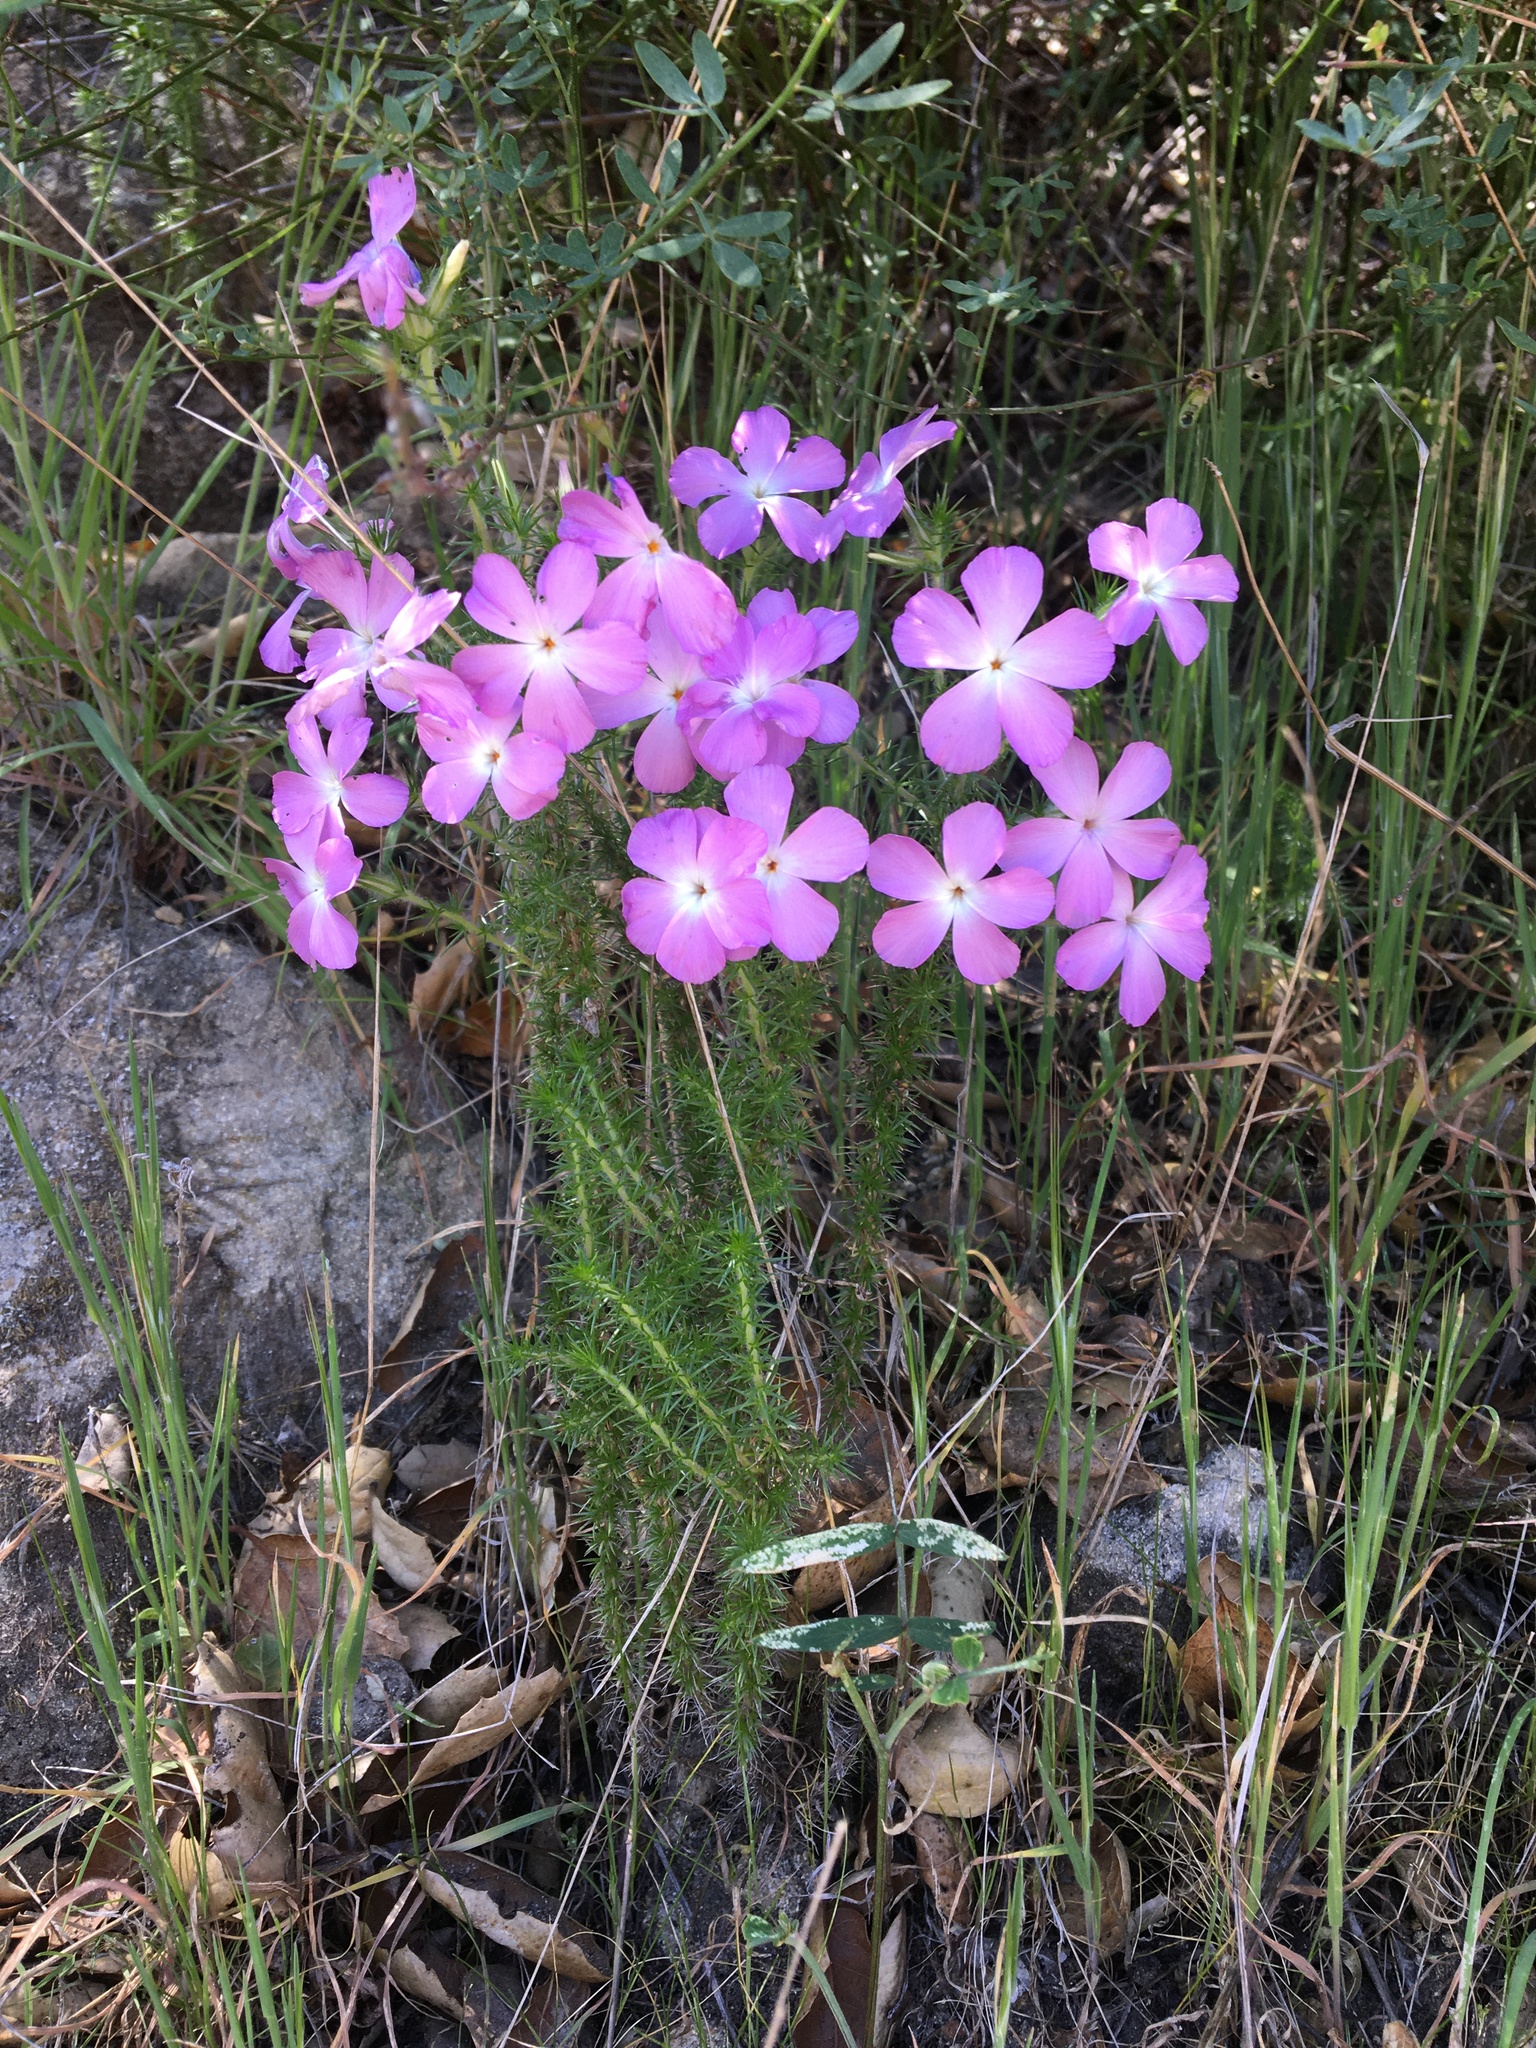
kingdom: Plantae
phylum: Tracheophyta
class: Magnoliopsida
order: Ericales
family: Polemoniaceae
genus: Linanthus
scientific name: Linanthus californicus
